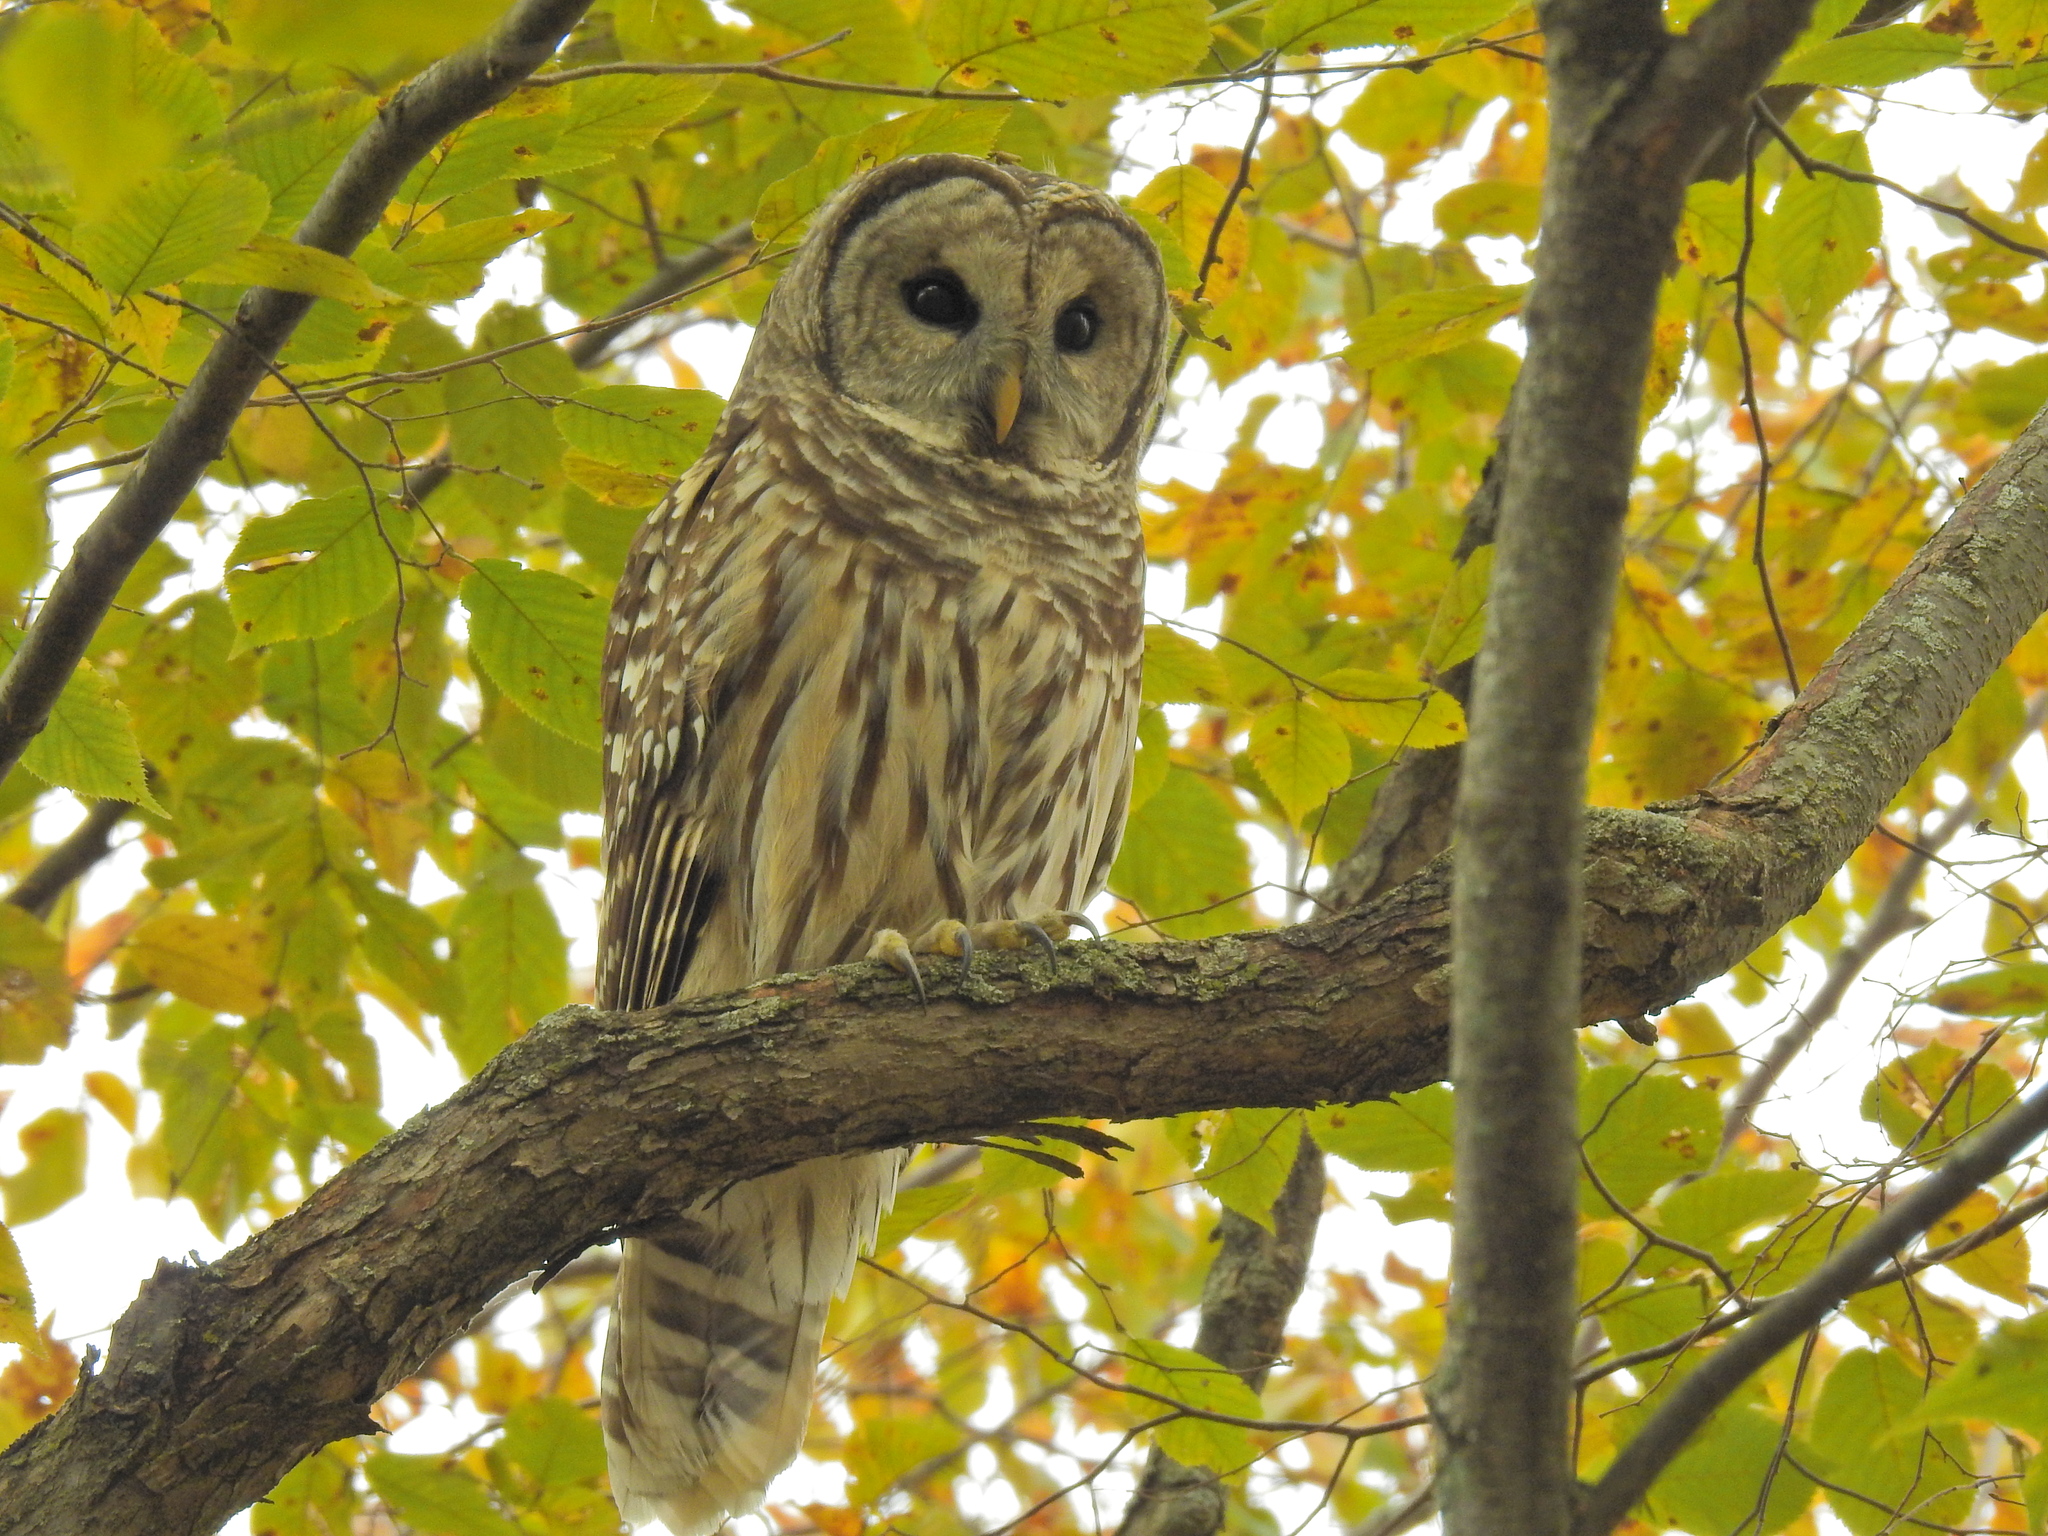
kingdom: Animalia
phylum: Chordata
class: Aves
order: Strigiformes
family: Strigidae
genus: Strix
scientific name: Strix varia
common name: Barred owl
